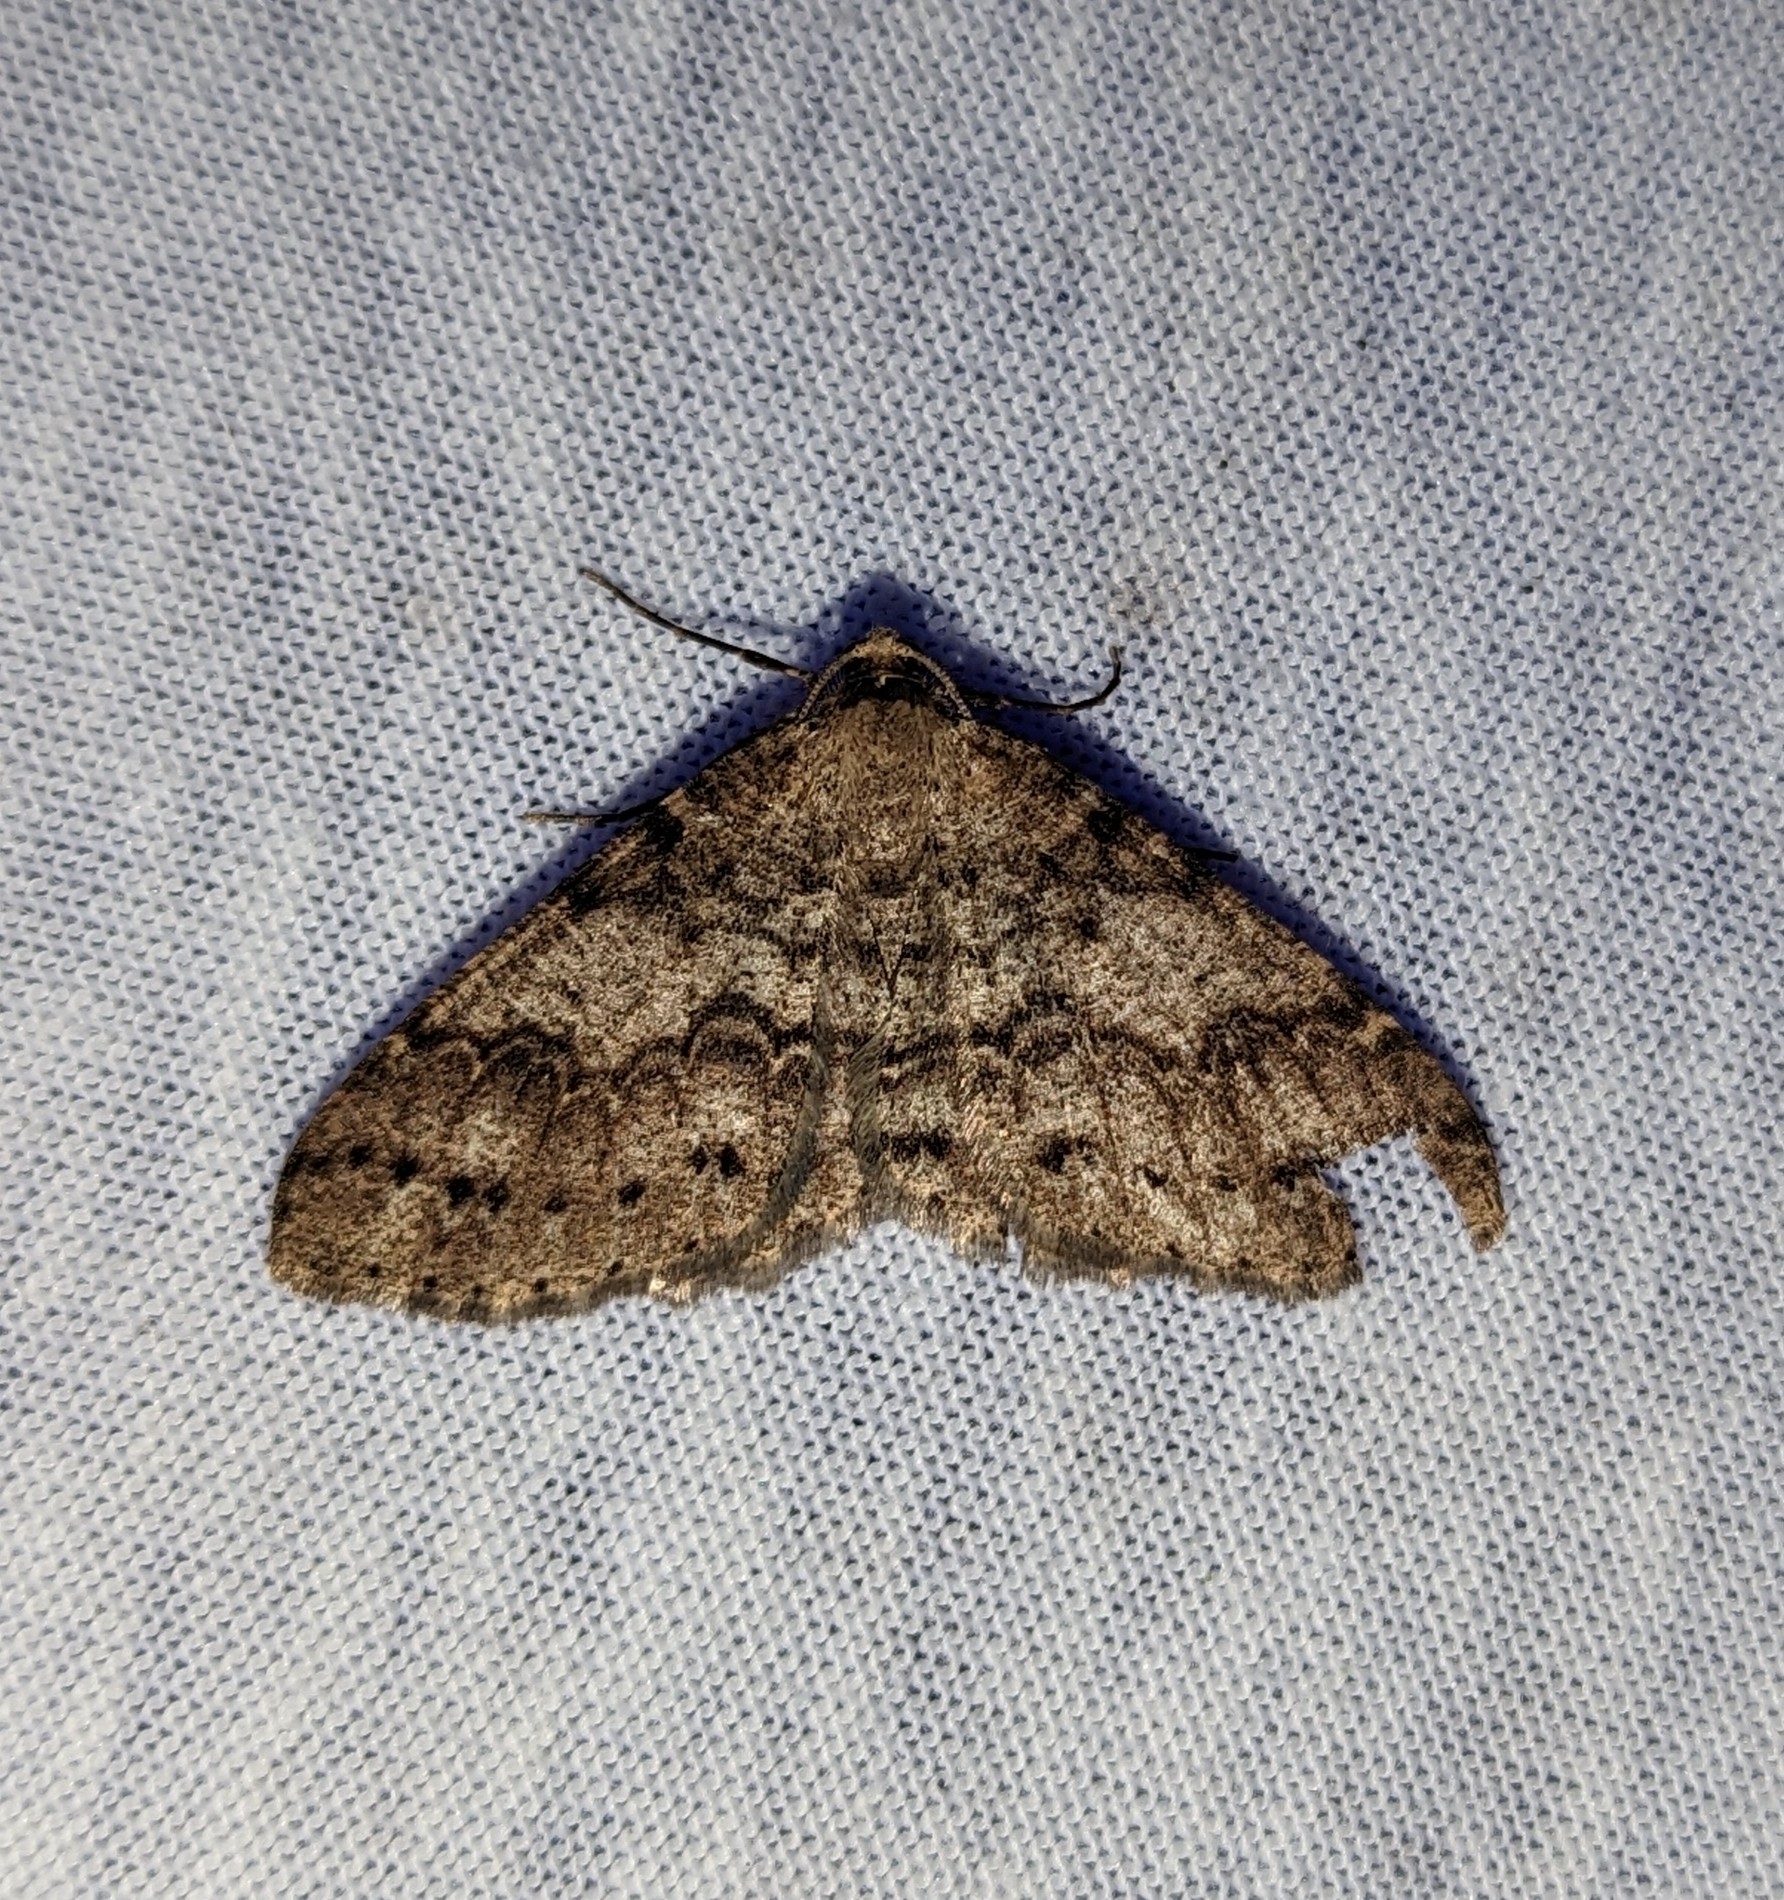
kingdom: Animalia
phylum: Arthropoda
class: Insecta
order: Lepidoptera
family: Geometridae
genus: Melanolophia
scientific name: Melanolophia imitata
